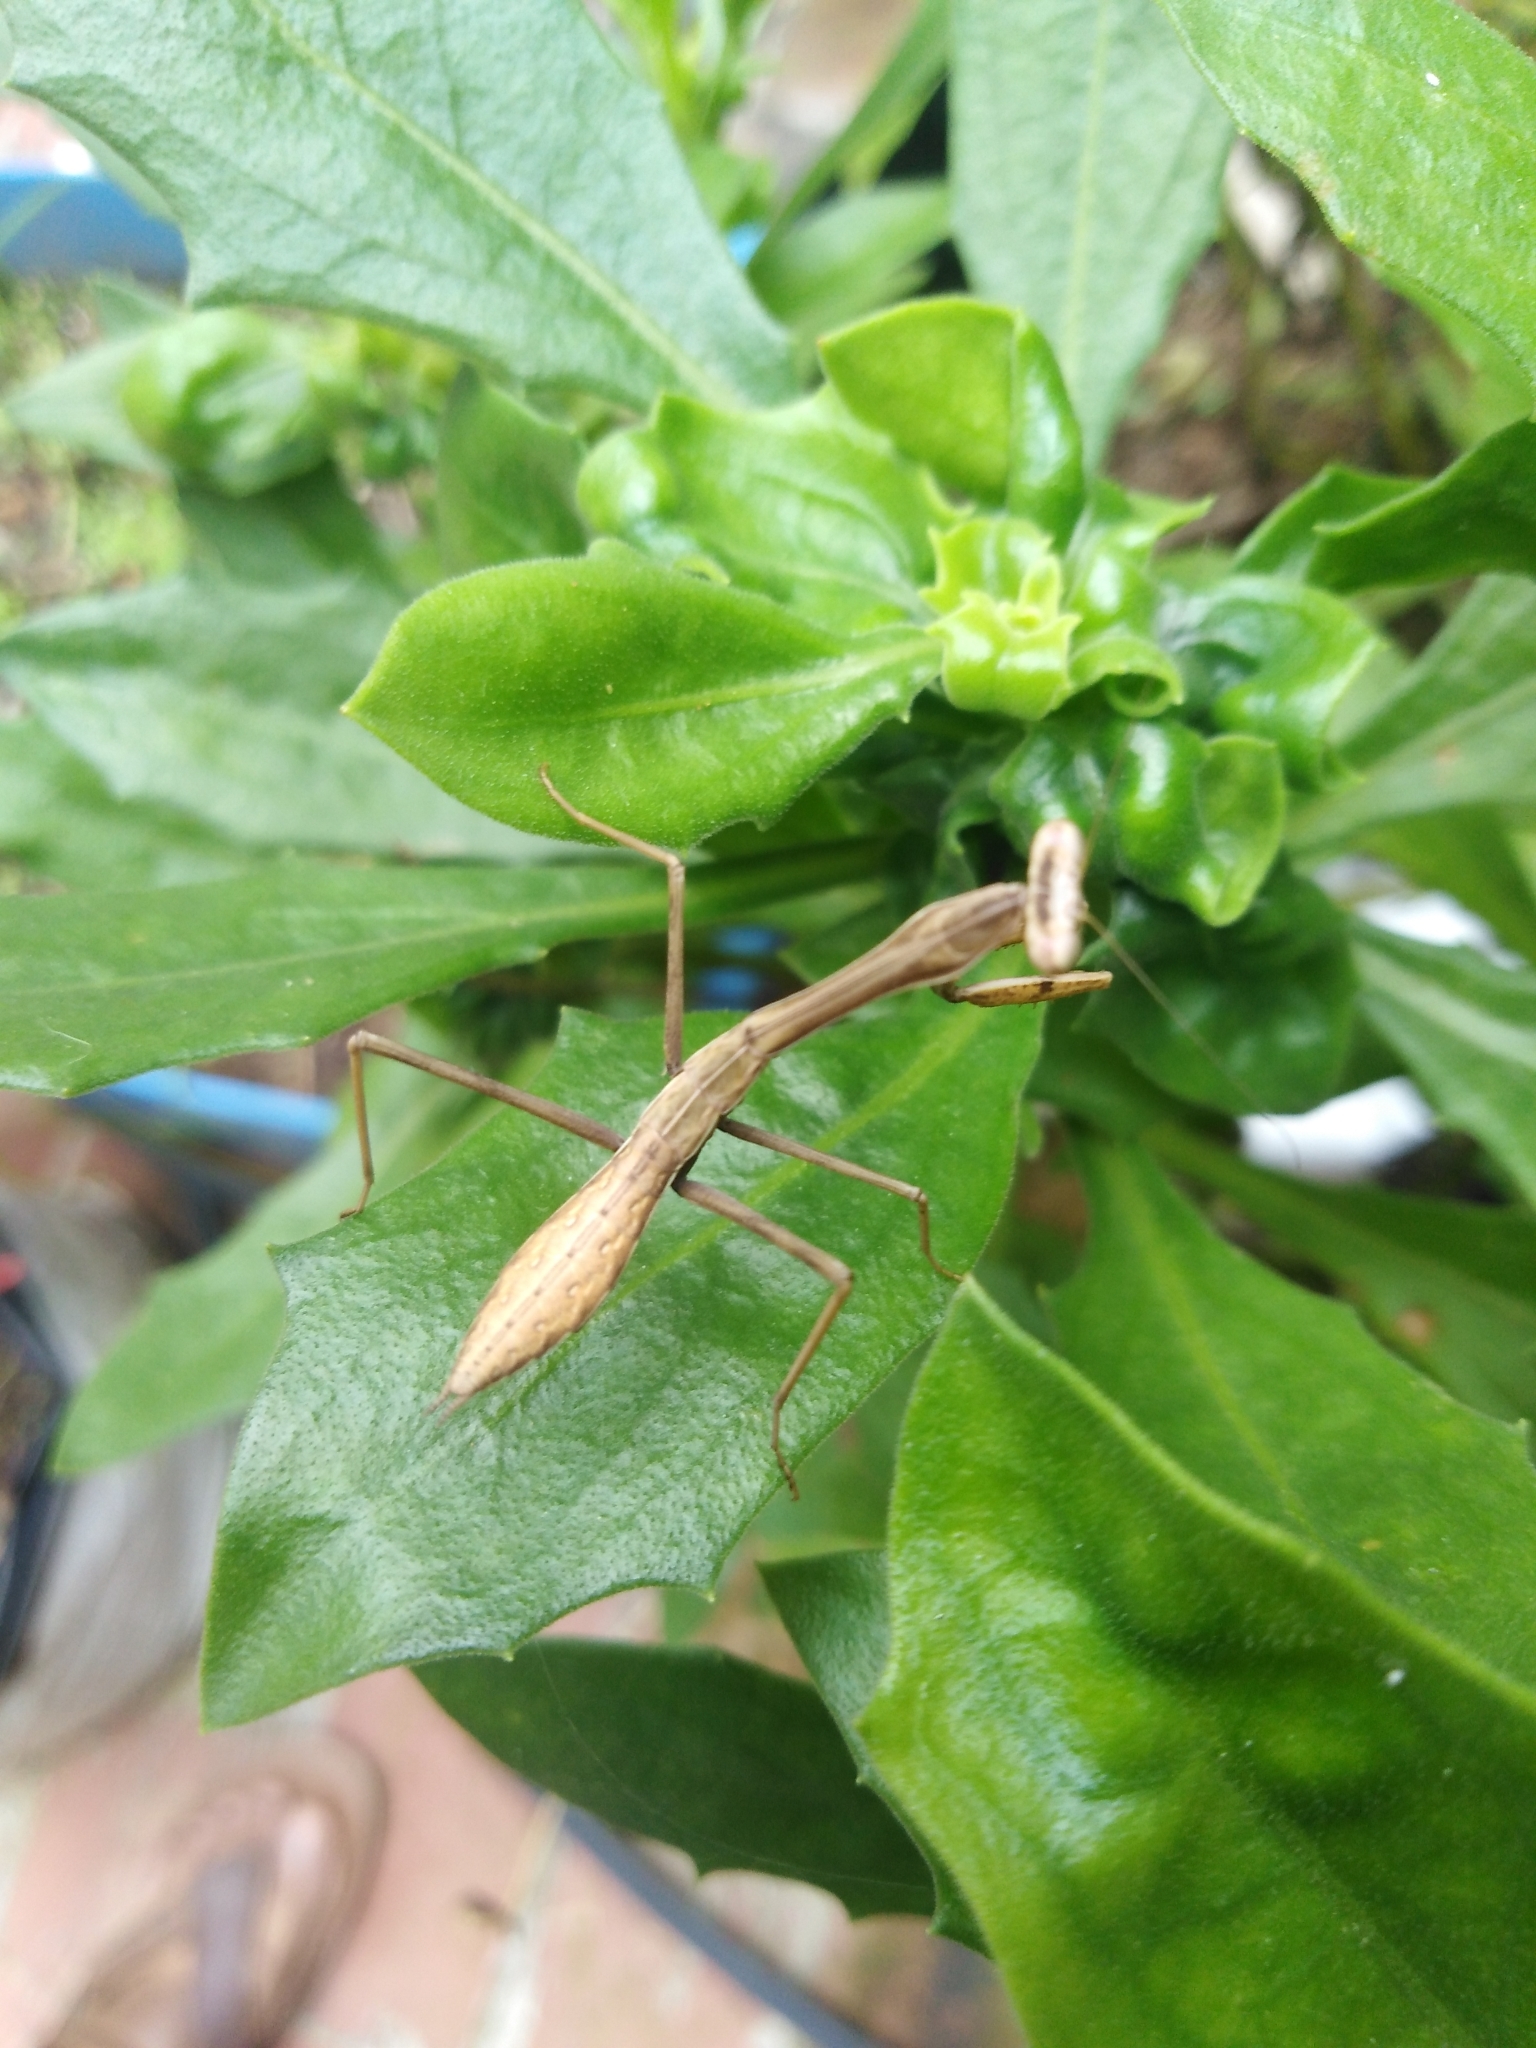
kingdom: Animalia
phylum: Arthropoda
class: Insecta
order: Mantodea
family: Mantidae
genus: Hierodula
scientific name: Hierodula membranacea
